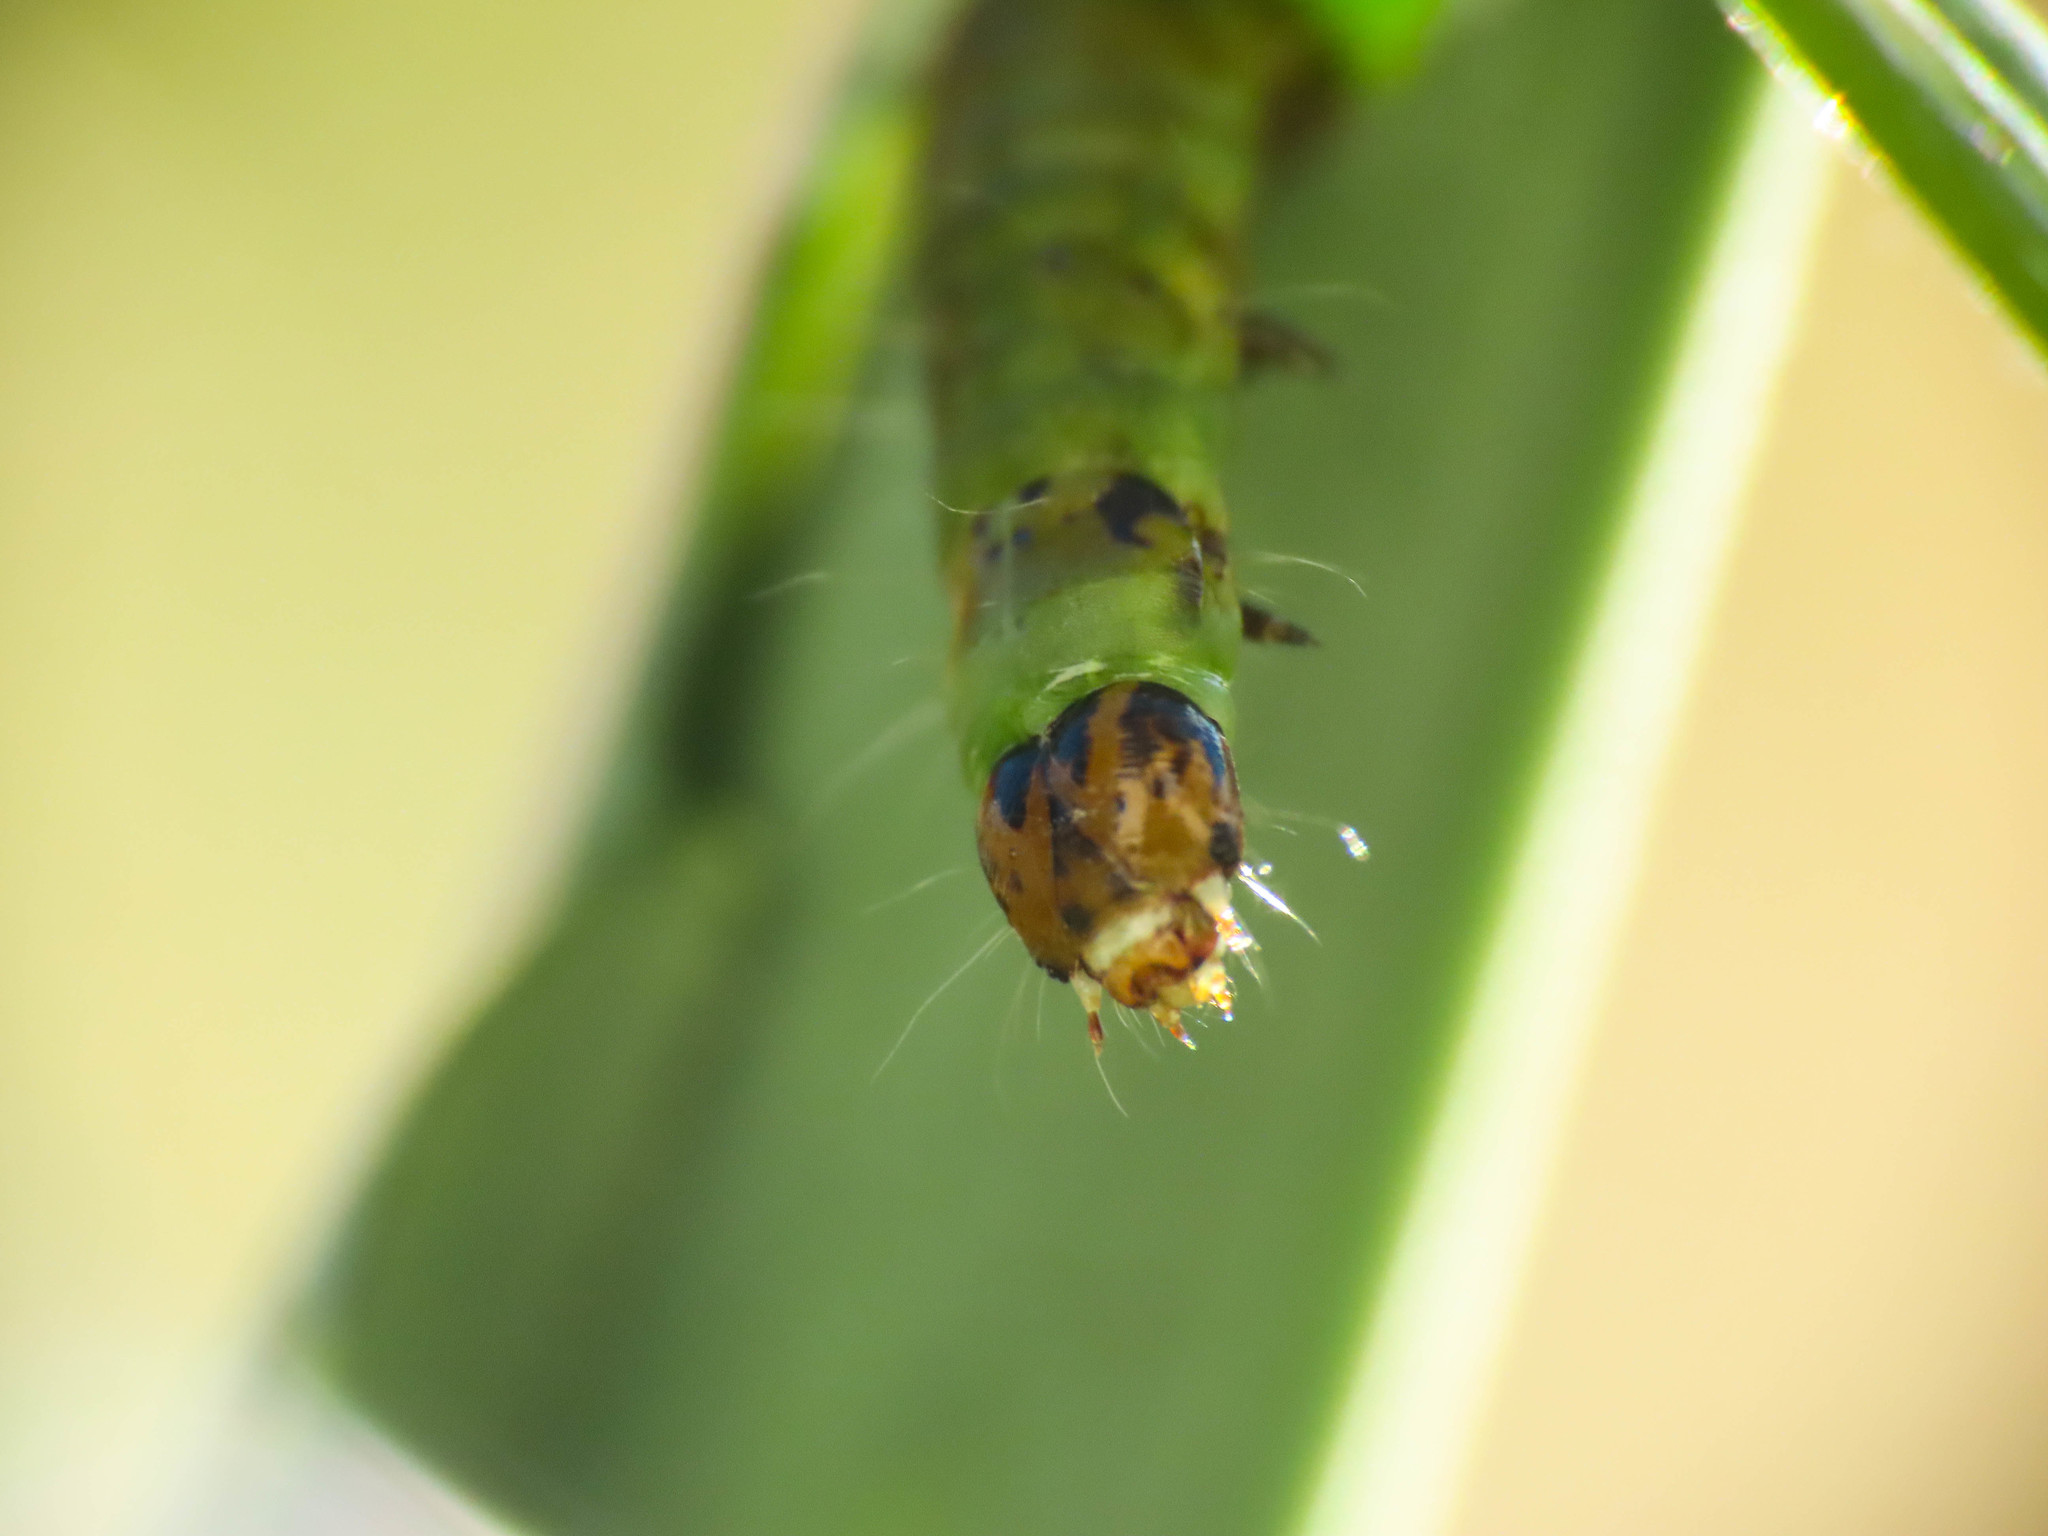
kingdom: Animalia
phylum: Arthropoda
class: Insecta
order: Lepidoptera
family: Tortricidae
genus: Cacoecimorpha
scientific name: Cacoecimorpha pronubana
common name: Carnation tortrix
